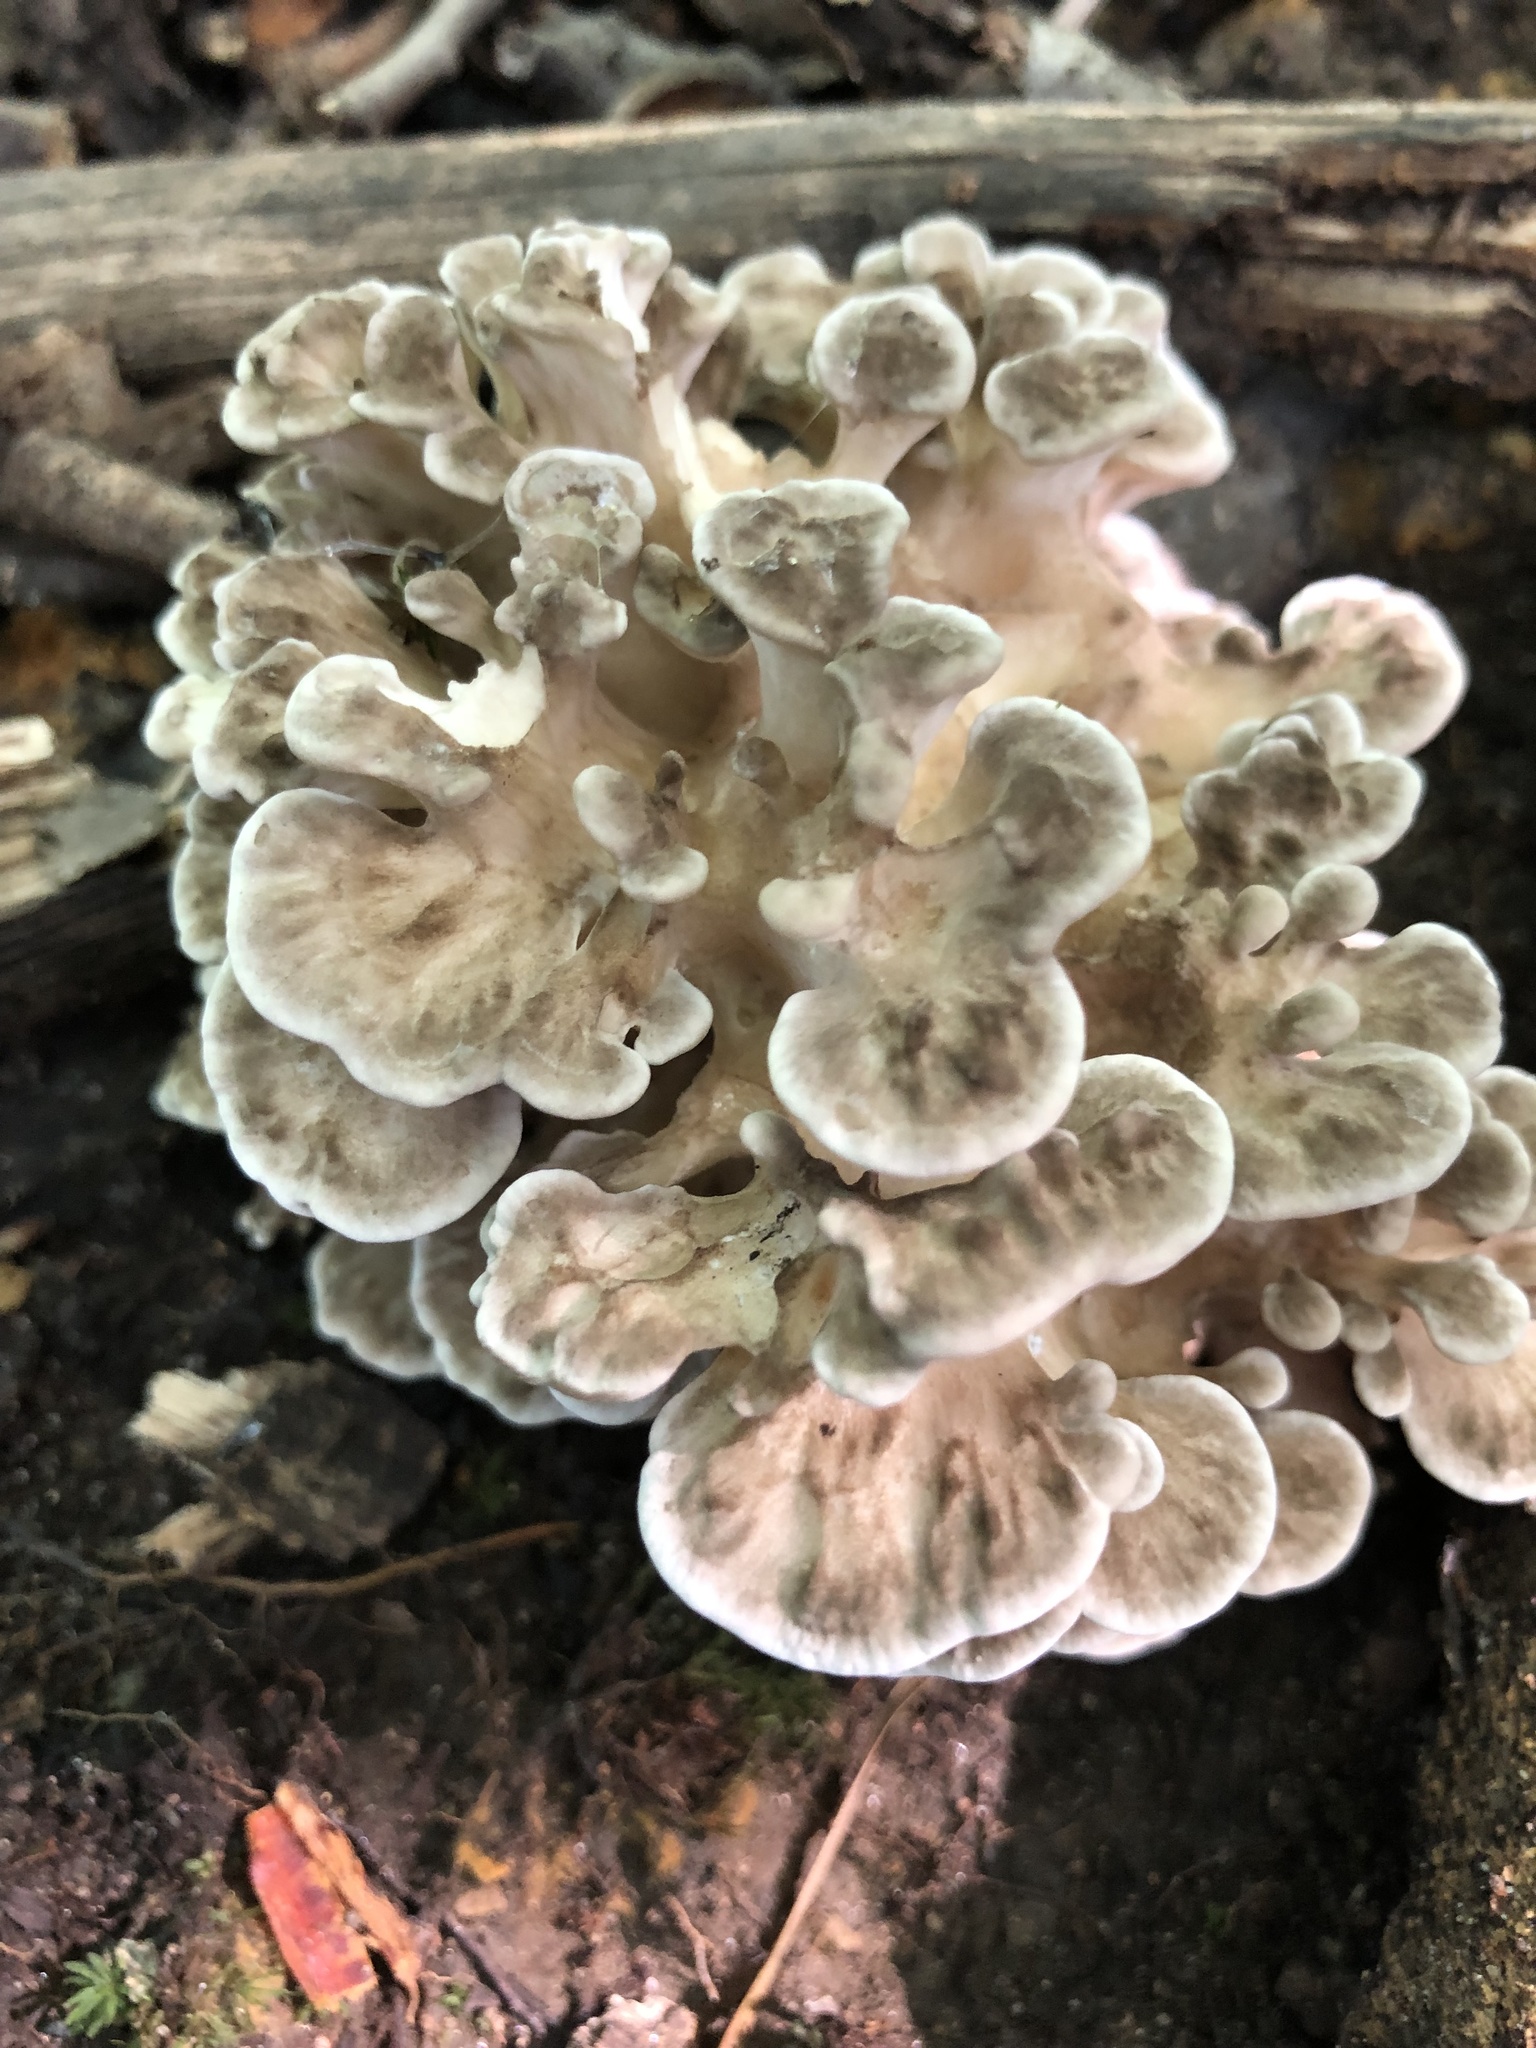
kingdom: Fungi
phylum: Basidiomycota
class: Agaricomycetes
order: Polyporales
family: Grifolaceae
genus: Grifola
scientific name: Grifola frondosa
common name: Hen of the woods
